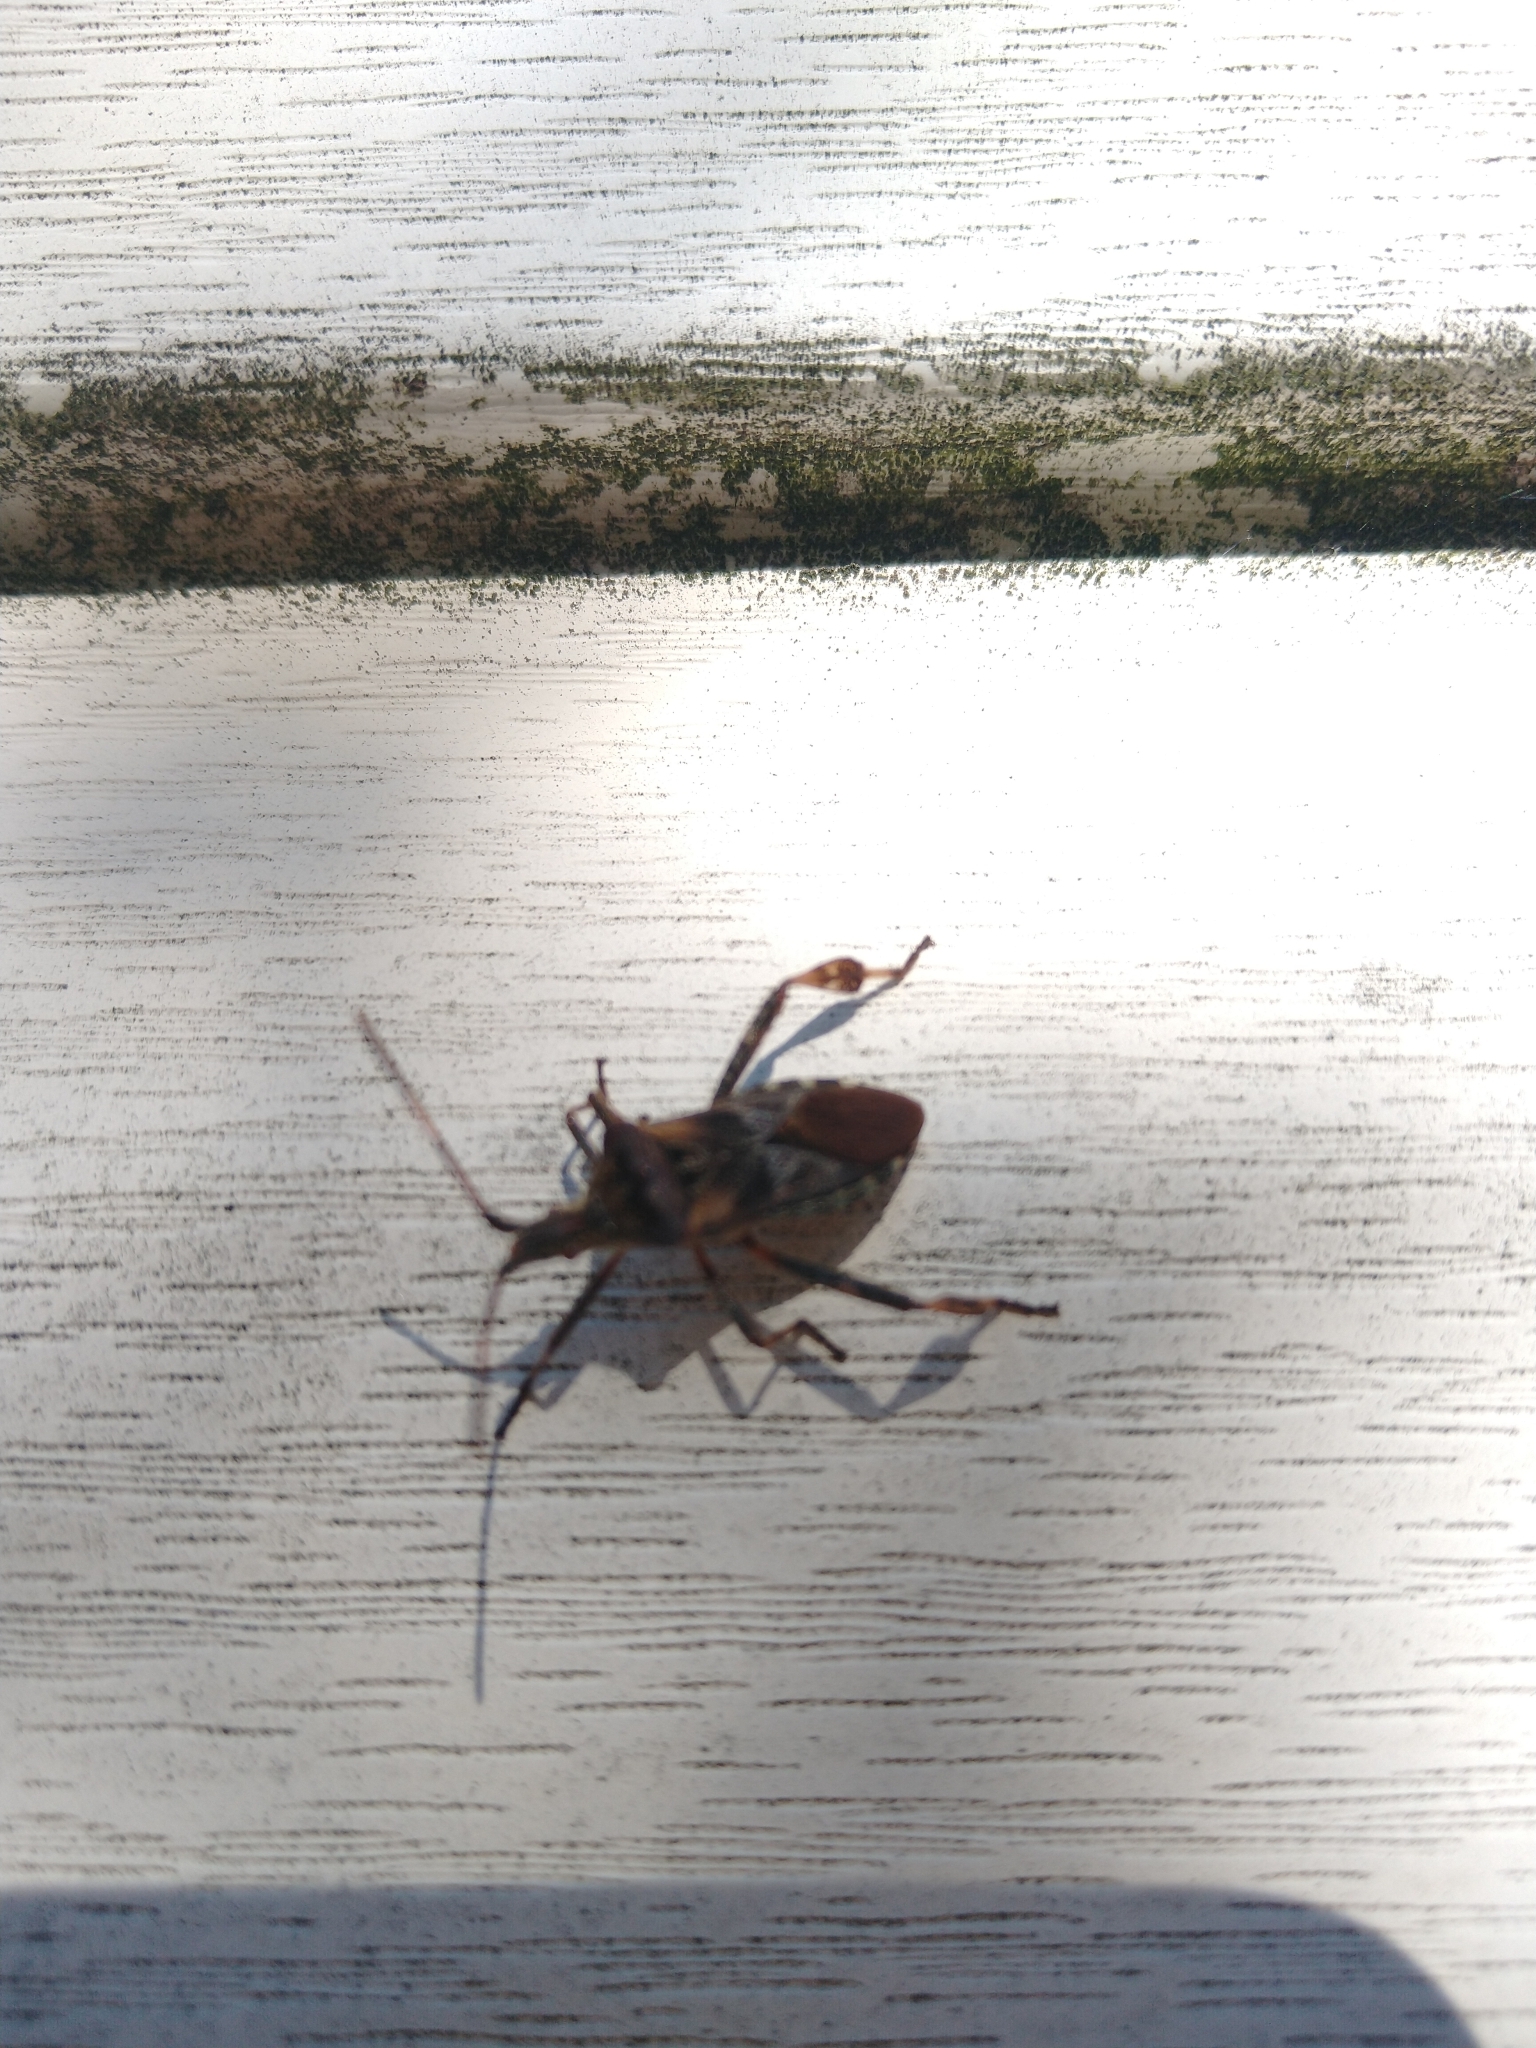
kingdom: Animalia
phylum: Arthropoda
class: Insecta
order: Hemiptera
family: Coreidae
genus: Leptoglossus
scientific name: Leptoglossus occidentalis
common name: Western conifer-seed bug
